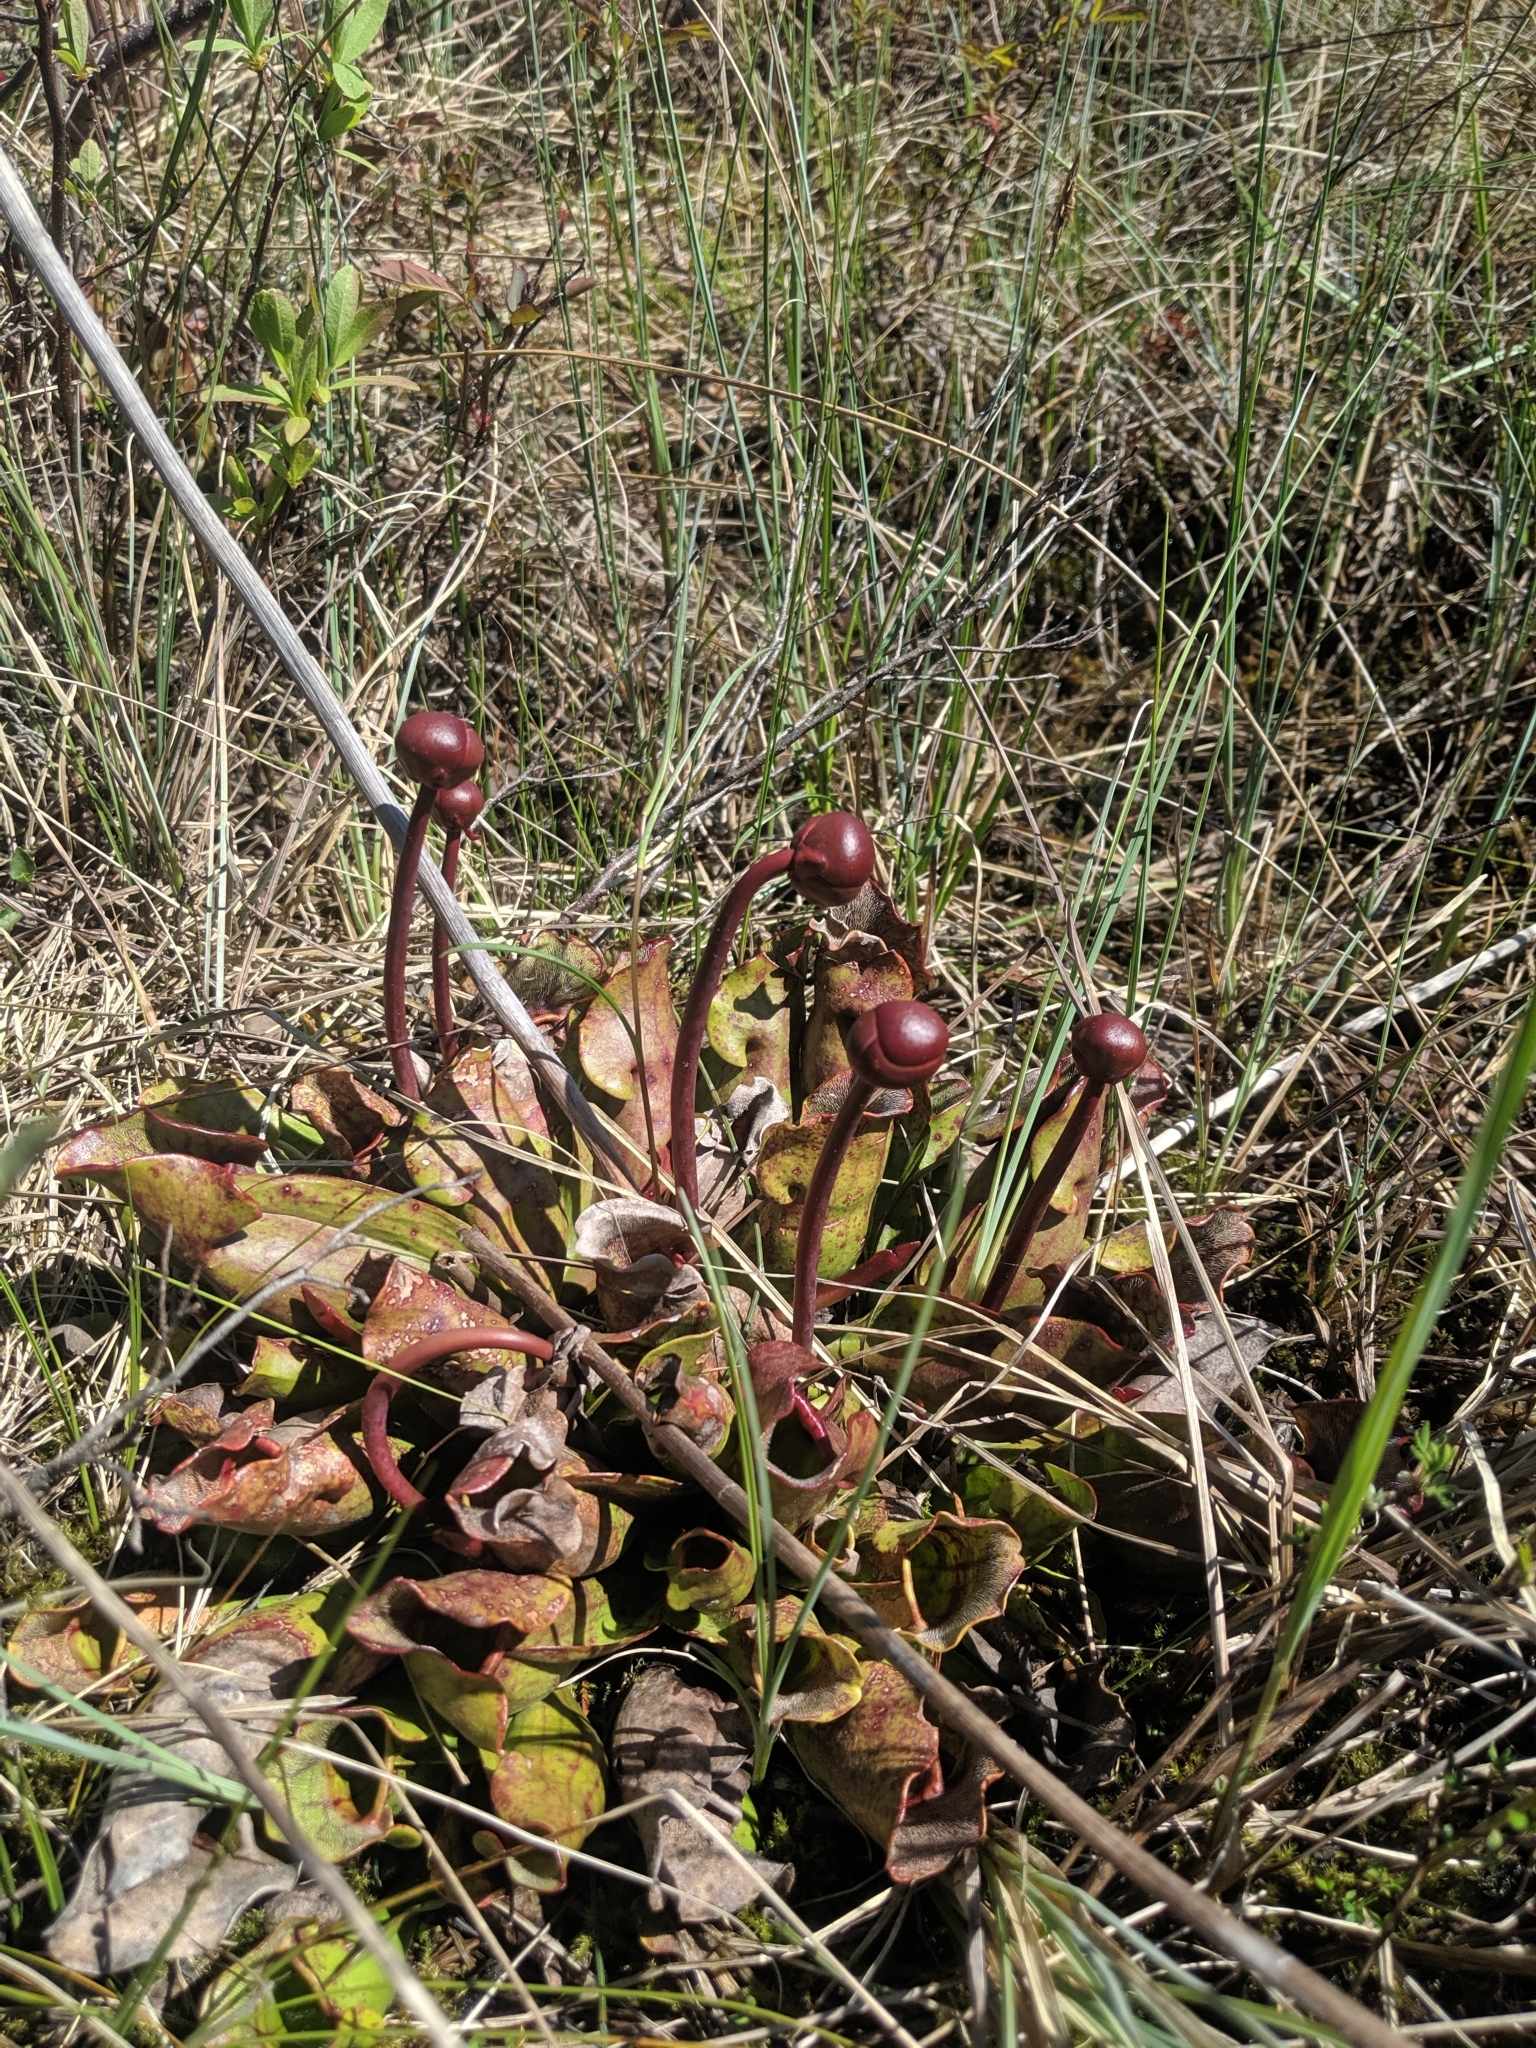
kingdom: Plantae
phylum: Tracheophyta
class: Magnoliopsida
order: Ericales
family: Sarraceniaceae
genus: Sarracenia
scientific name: Sarracenia purpurea
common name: Pitcherplant
